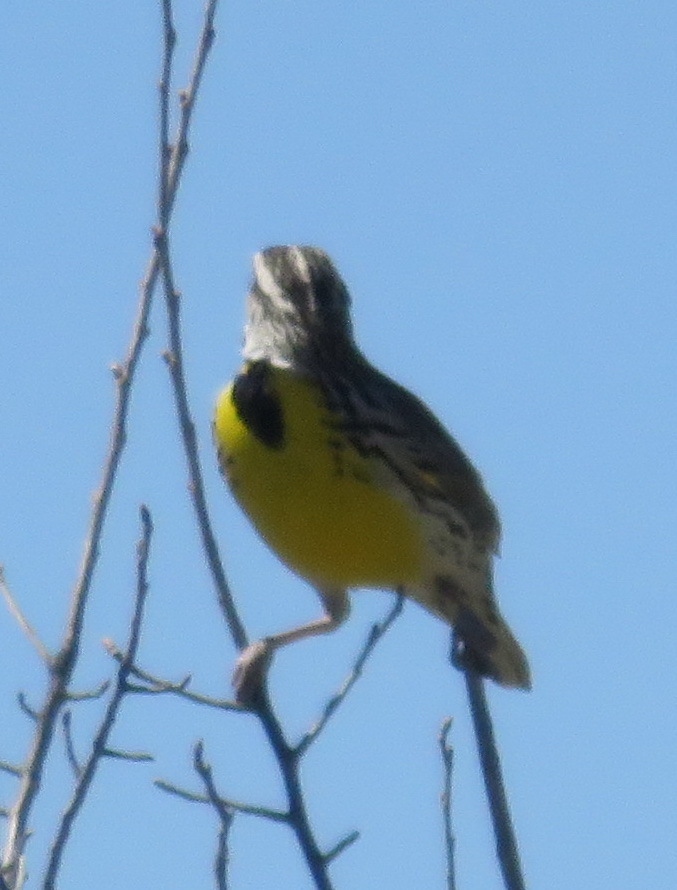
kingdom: Animalia
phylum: Chordata
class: Aves
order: Passeriformes
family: Icteridae
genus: Sturnella
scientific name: Sturnella neglecta
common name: Western meadowlark
